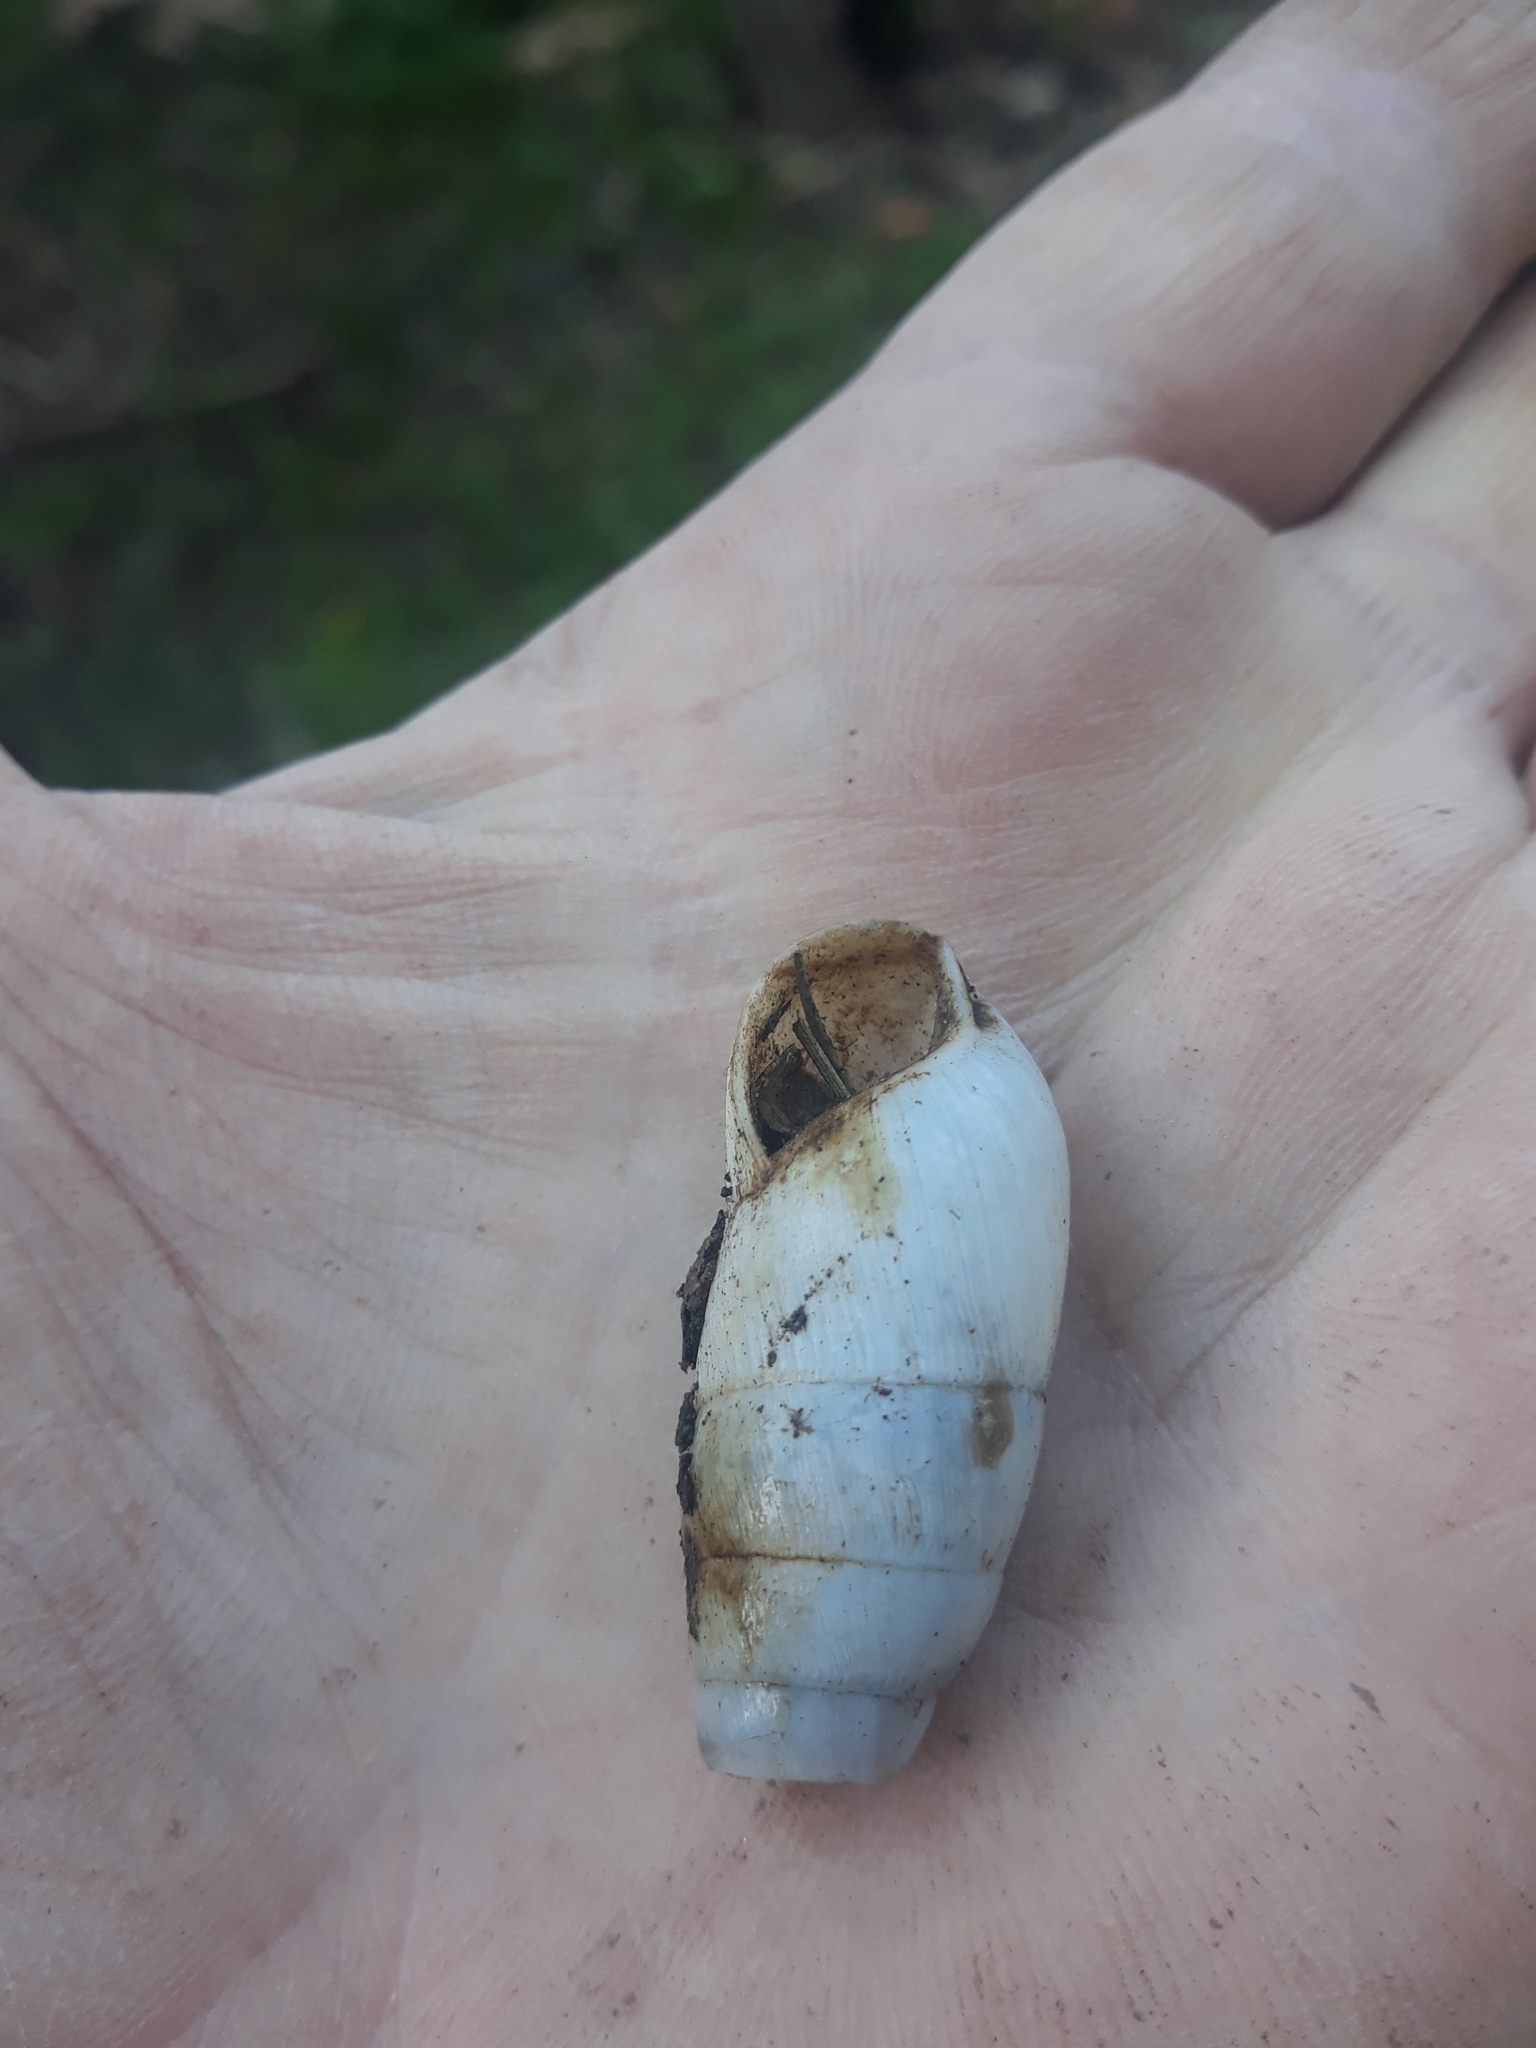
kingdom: Animalia
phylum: Mollusca
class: Gastropoda
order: Stylommatophora
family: Achatinidae
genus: Rumina
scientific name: Rumina decollata
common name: Decollate snail
